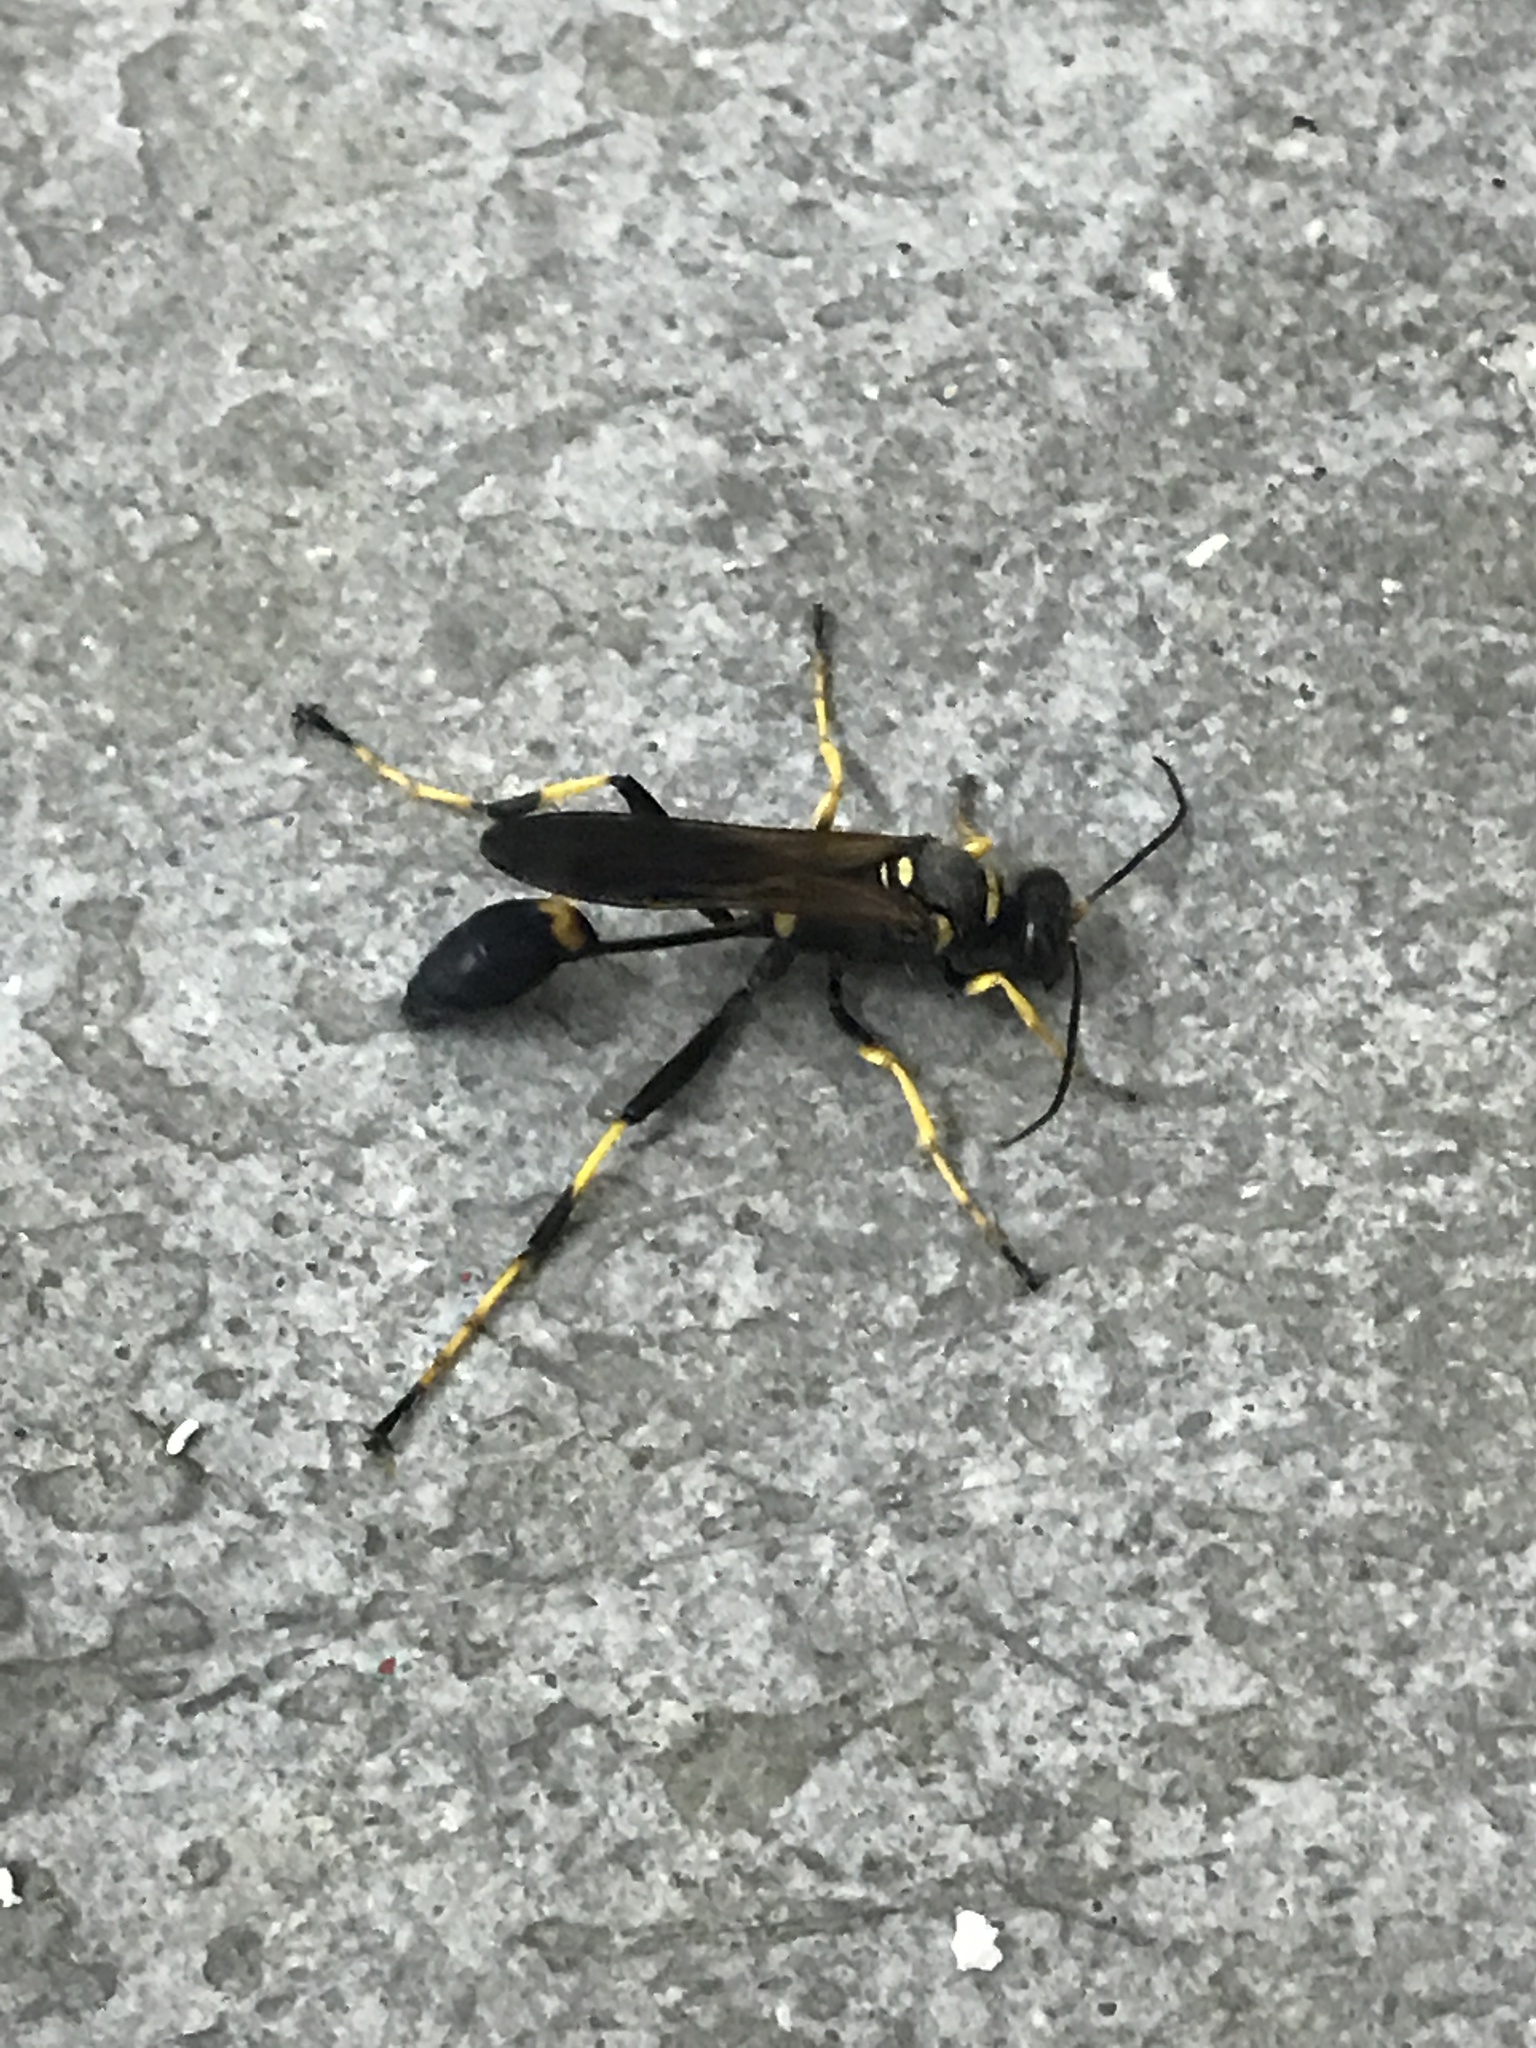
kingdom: Animalia
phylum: Arthropoda
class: Insecta
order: Hymenoptera
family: Sphecidae
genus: Sceliphron
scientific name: Sceliphron caementarium
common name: Mud dauber
